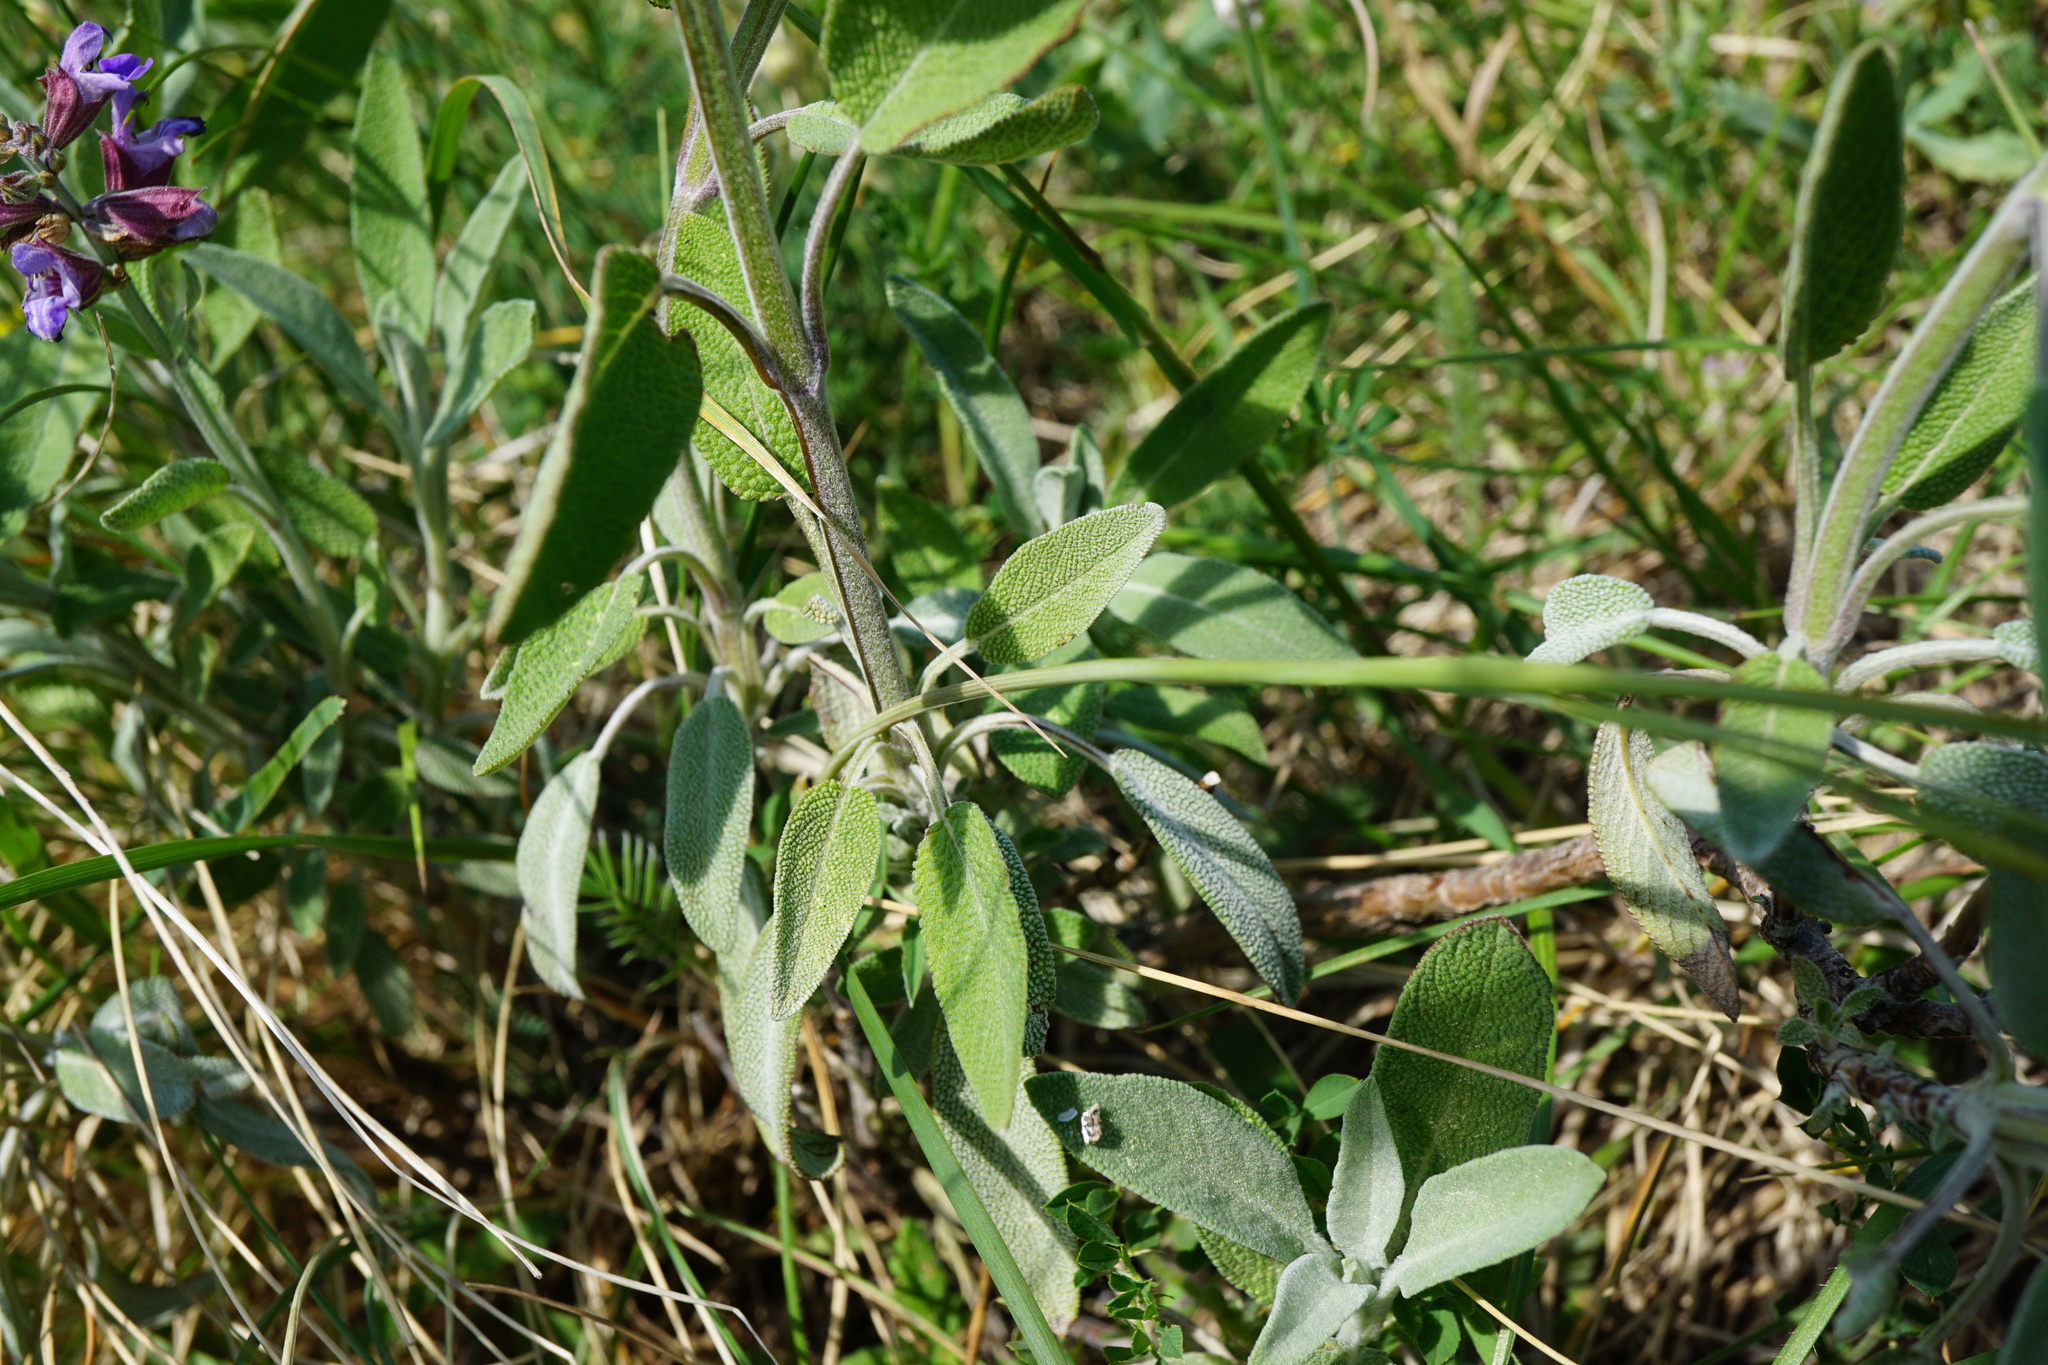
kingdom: Plantae
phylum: Tracheophyta
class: Magnoliopsida
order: Lamiales
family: Lamiaceae
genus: Salvia
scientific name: Salvia officinalis
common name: Sage
